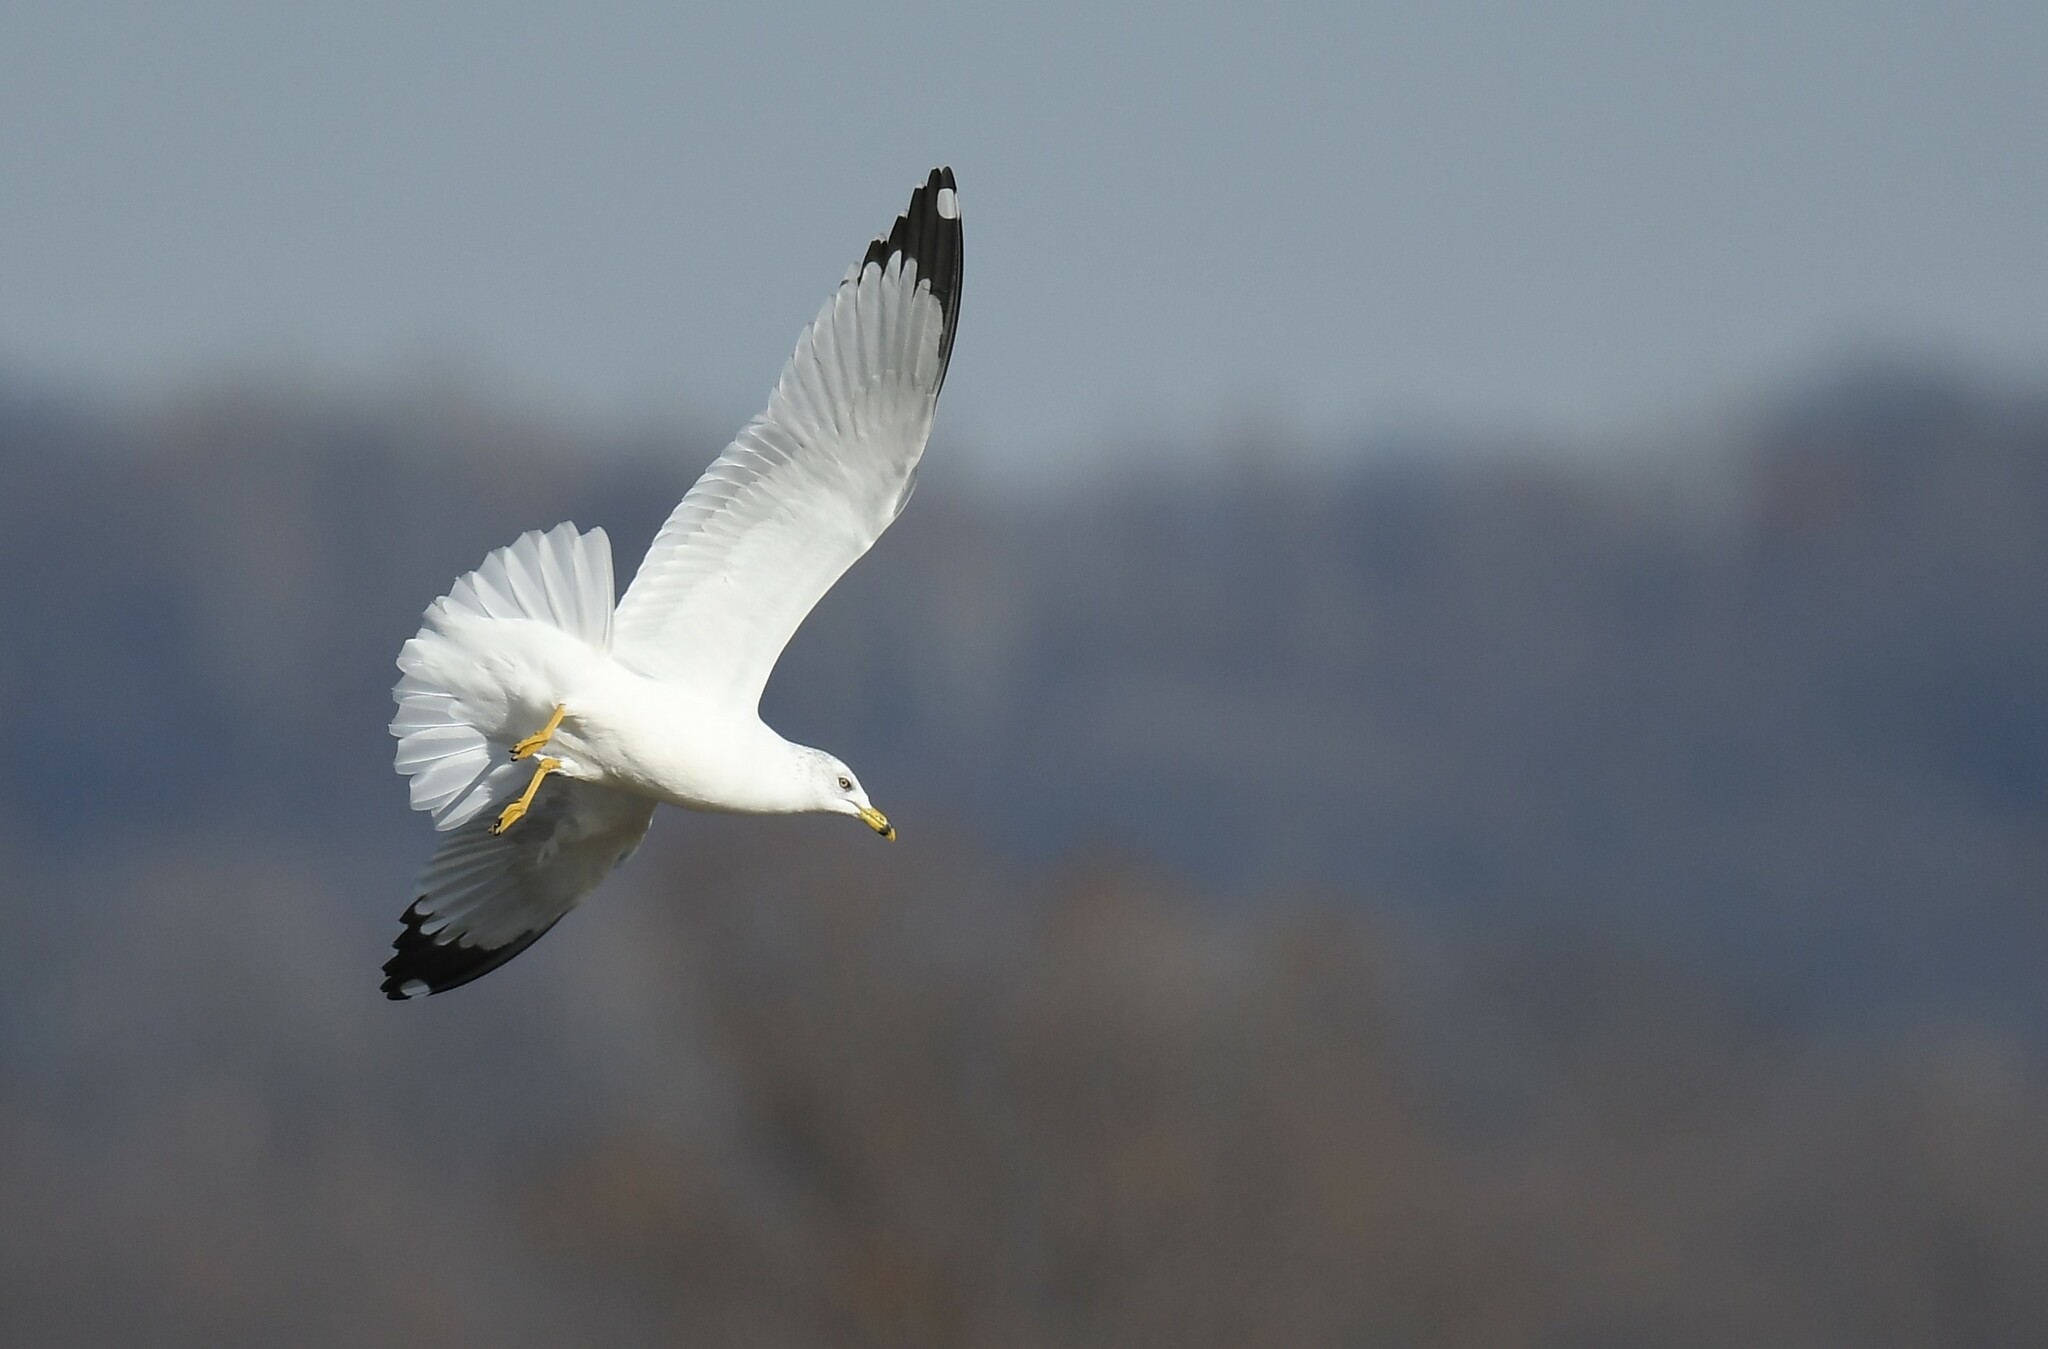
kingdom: Animalia
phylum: Chordata
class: Aves
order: Charadriiformes
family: Laridae
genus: Larus
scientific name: Larus delawarensis
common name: Ring-billed gull
